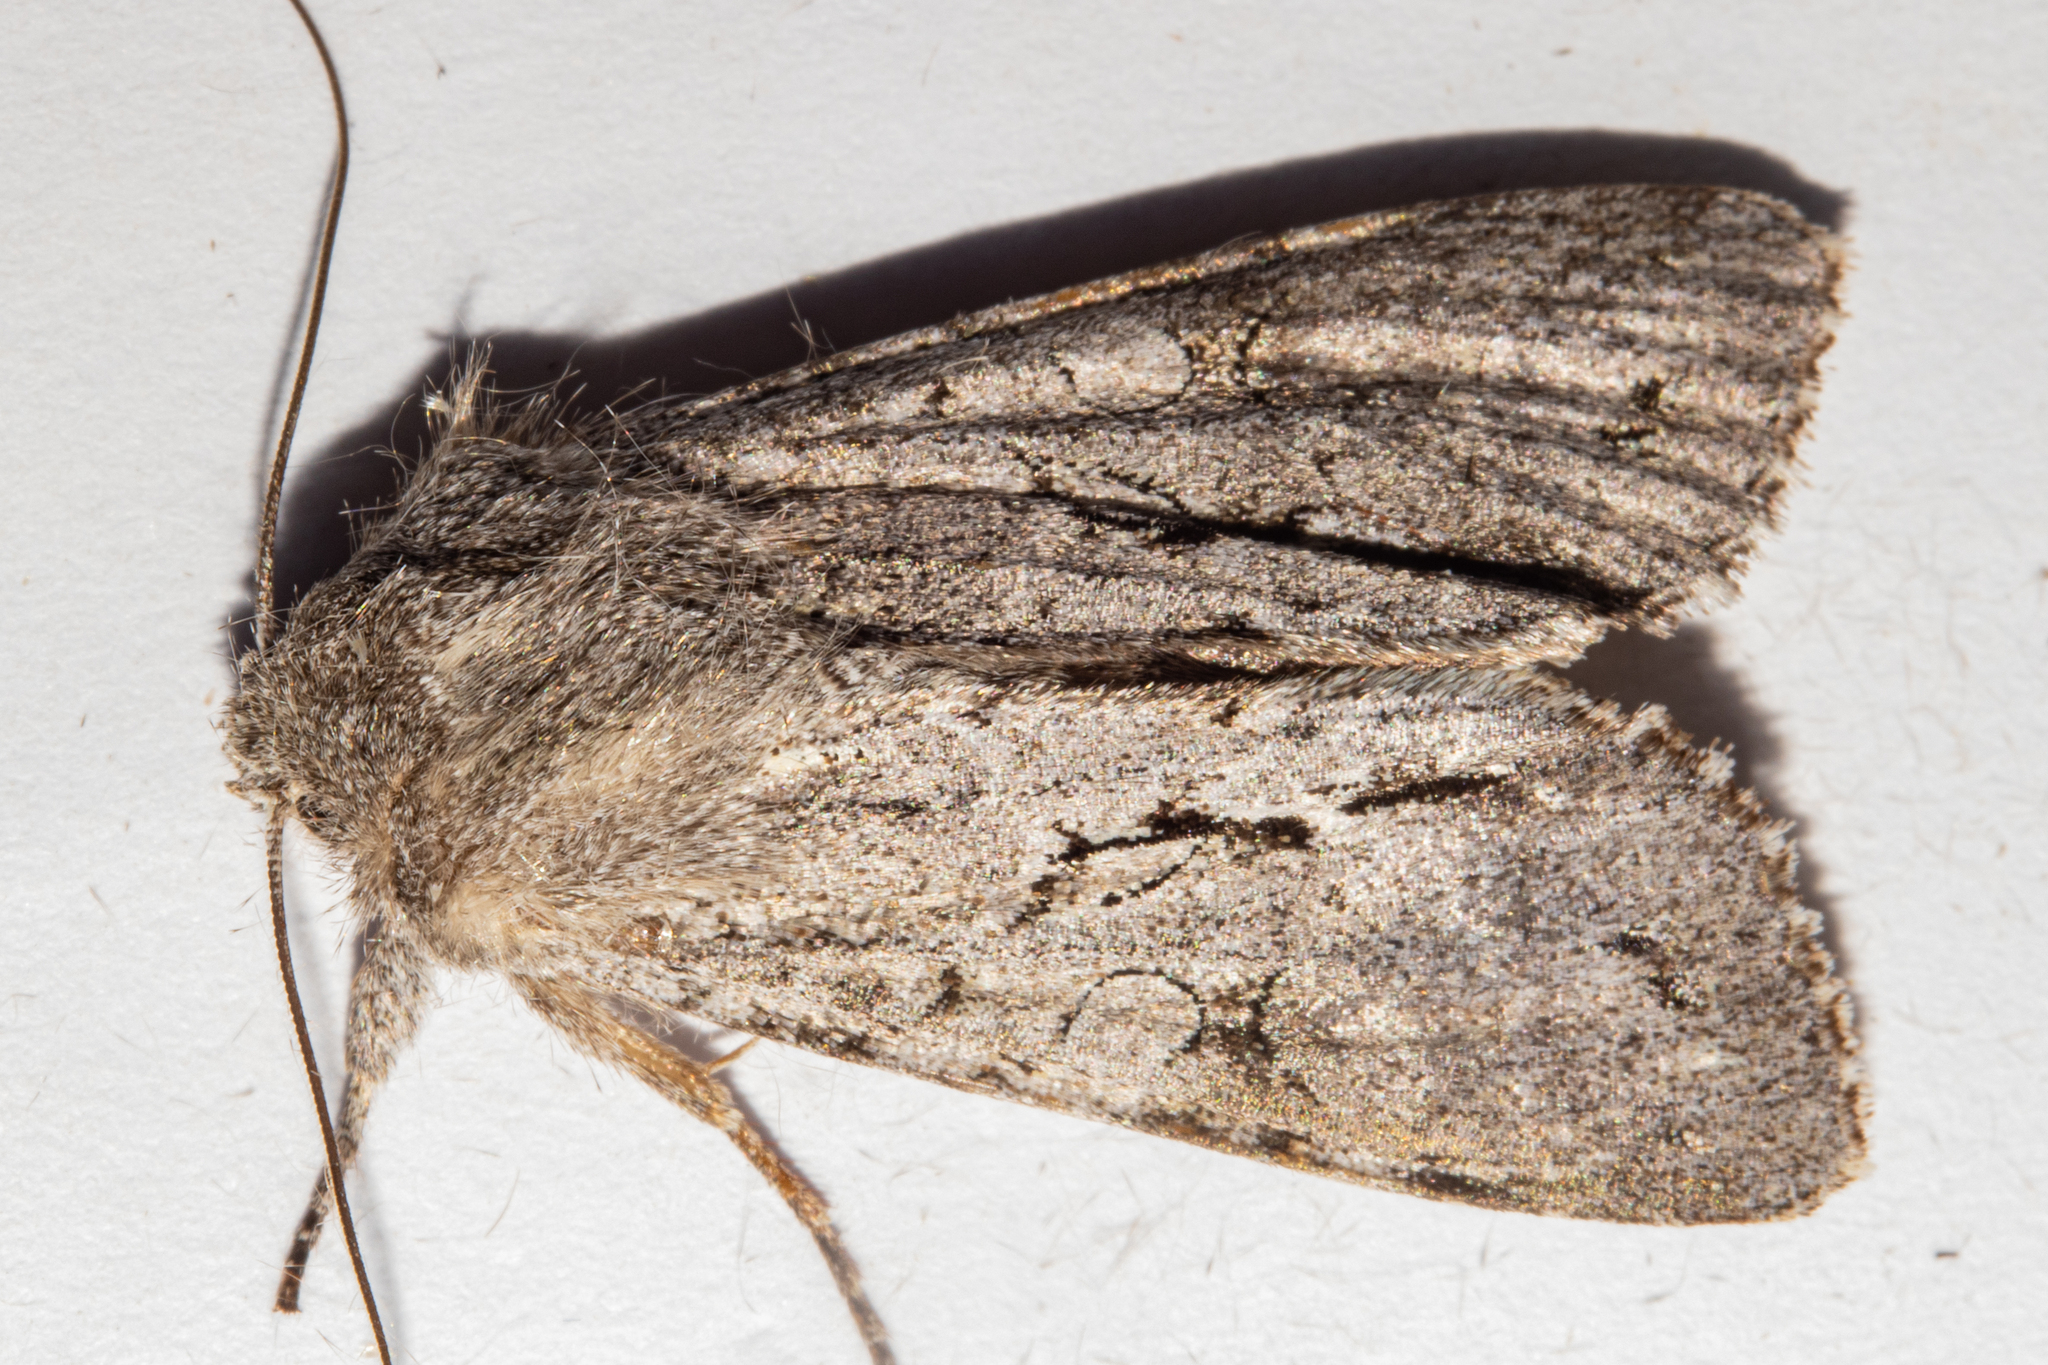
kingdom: Animalia
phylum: Arthropoda
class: Insecta
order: Lepidoptera
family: Noctuidae
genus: Ichneutica
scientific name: Ichneutica
